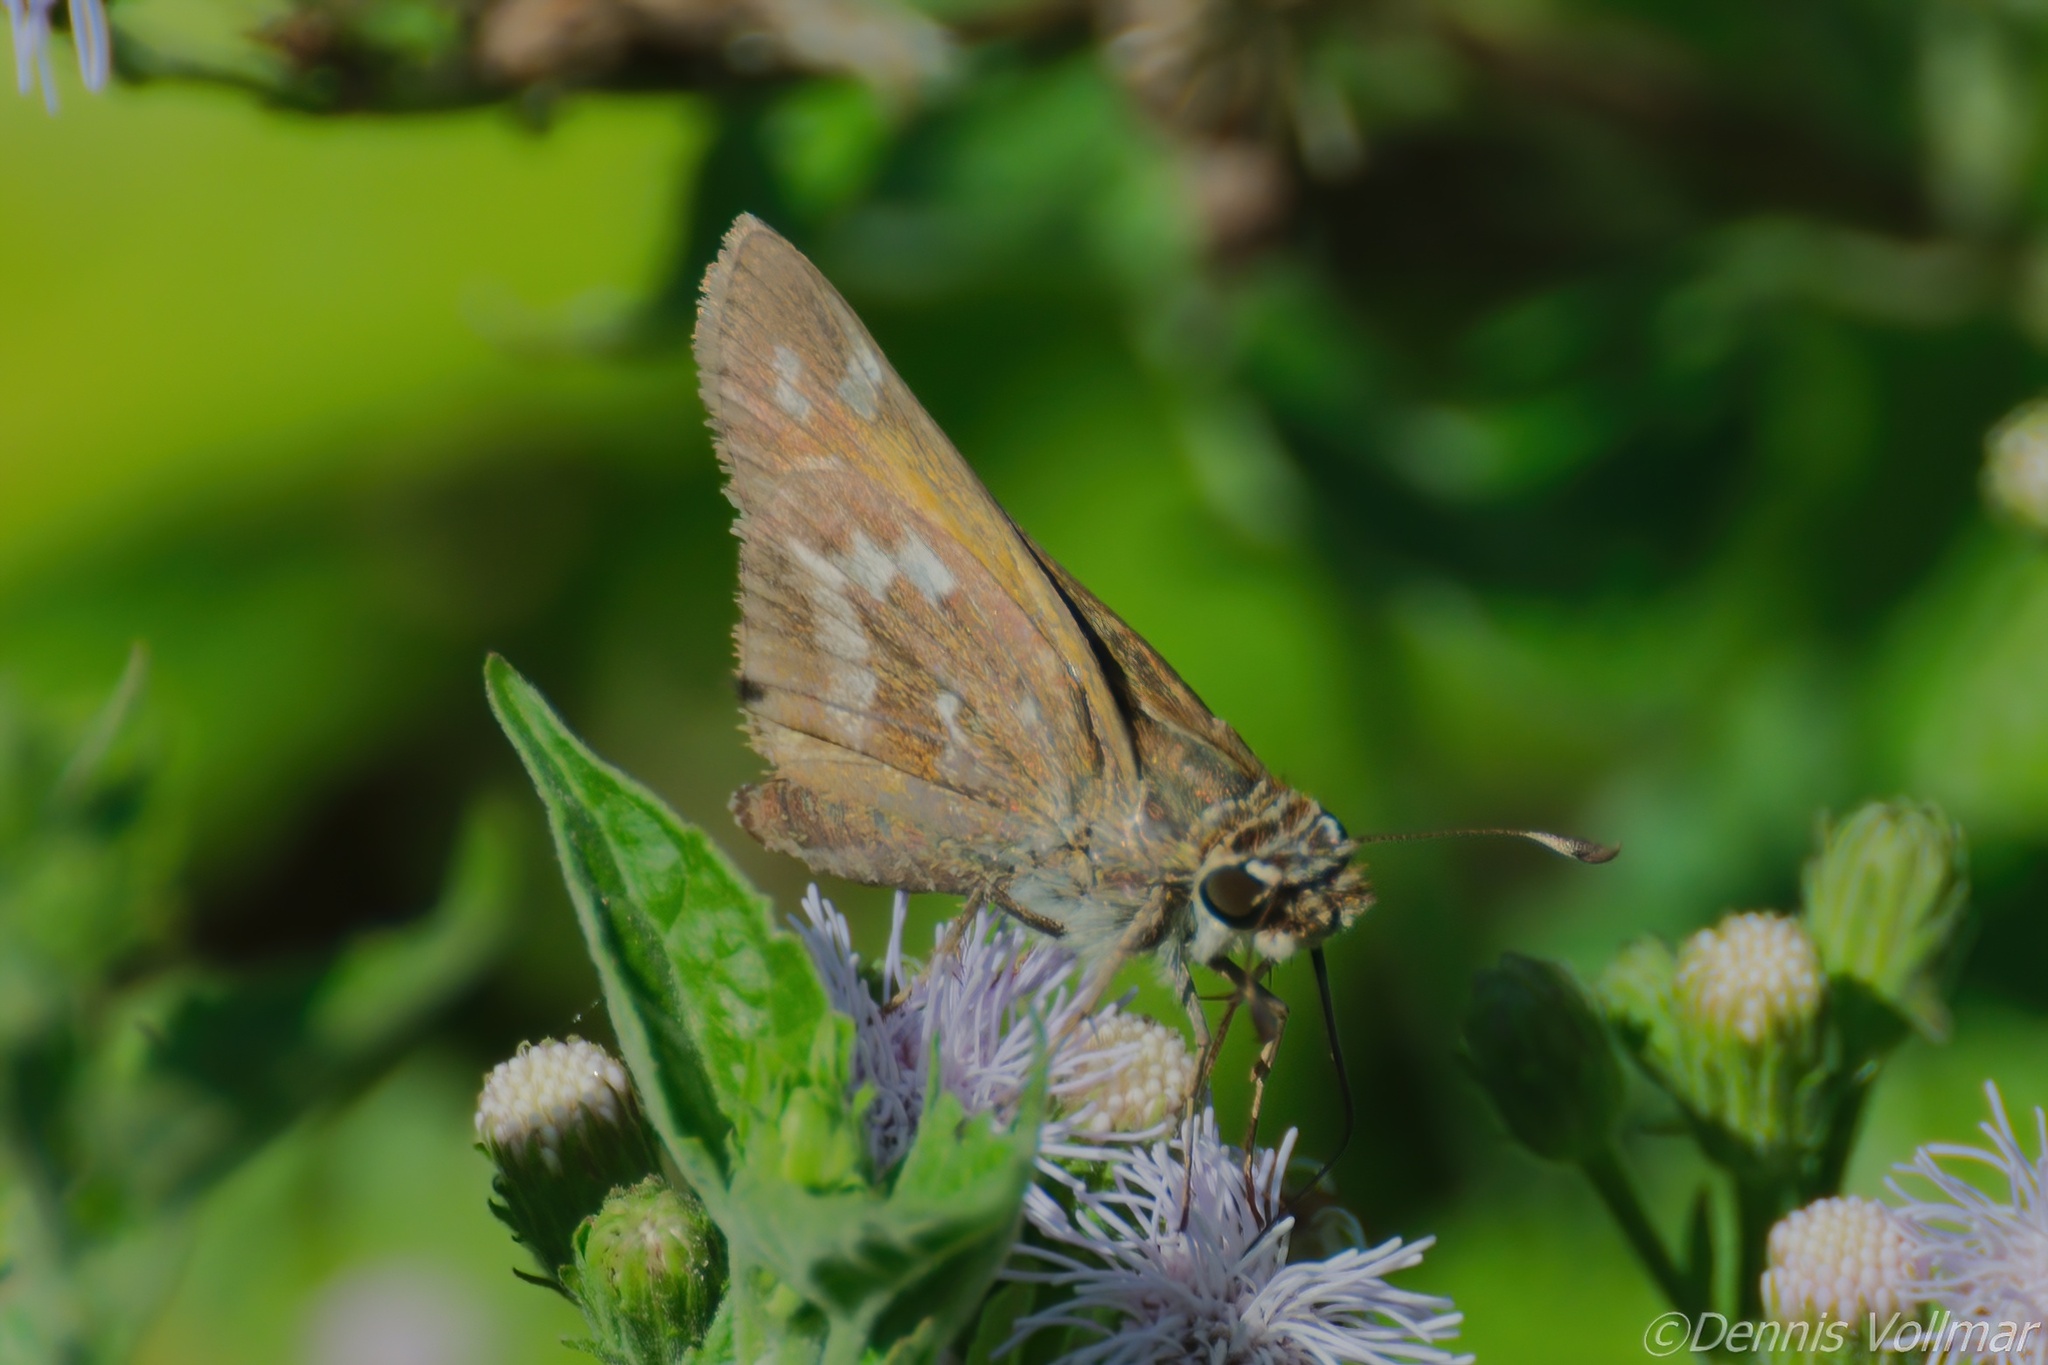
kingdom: Animalia
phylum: Arthropoda
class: Insecta
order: Lepidoptera
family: Hesperiidae
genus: Atalopedes
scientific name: Atalopedes
